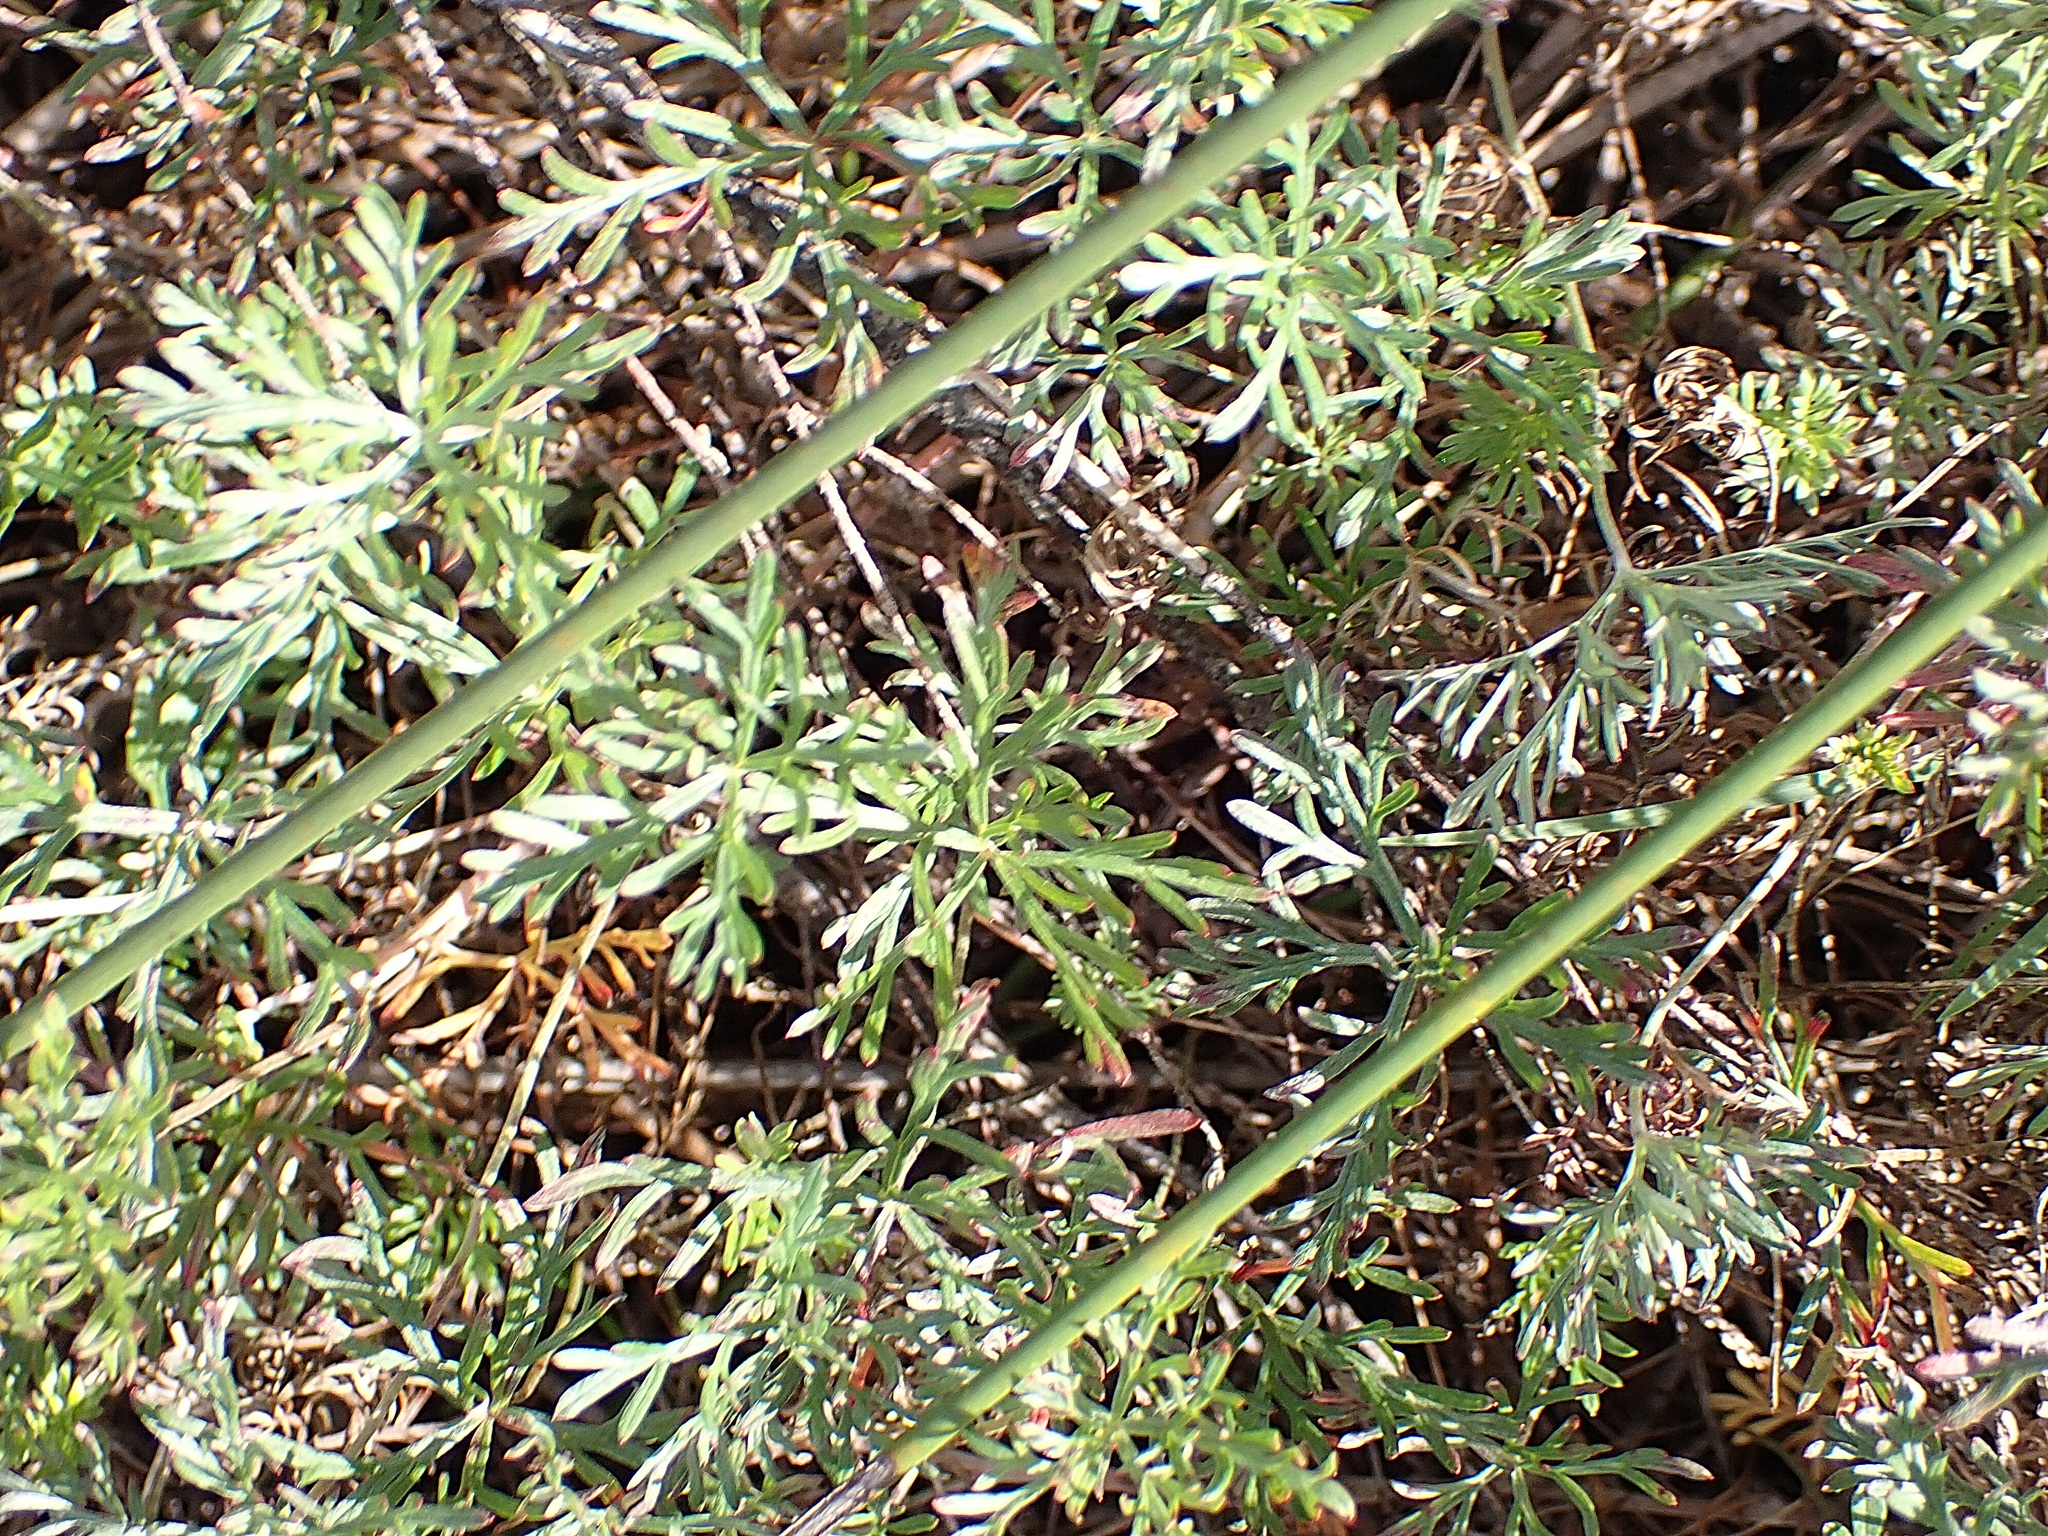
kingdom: Plantae
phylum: Tracheophyta
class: Magnoliopsida
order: Geraniales
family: Geraniaceae
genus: Geranium
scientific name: Geranium incanum
